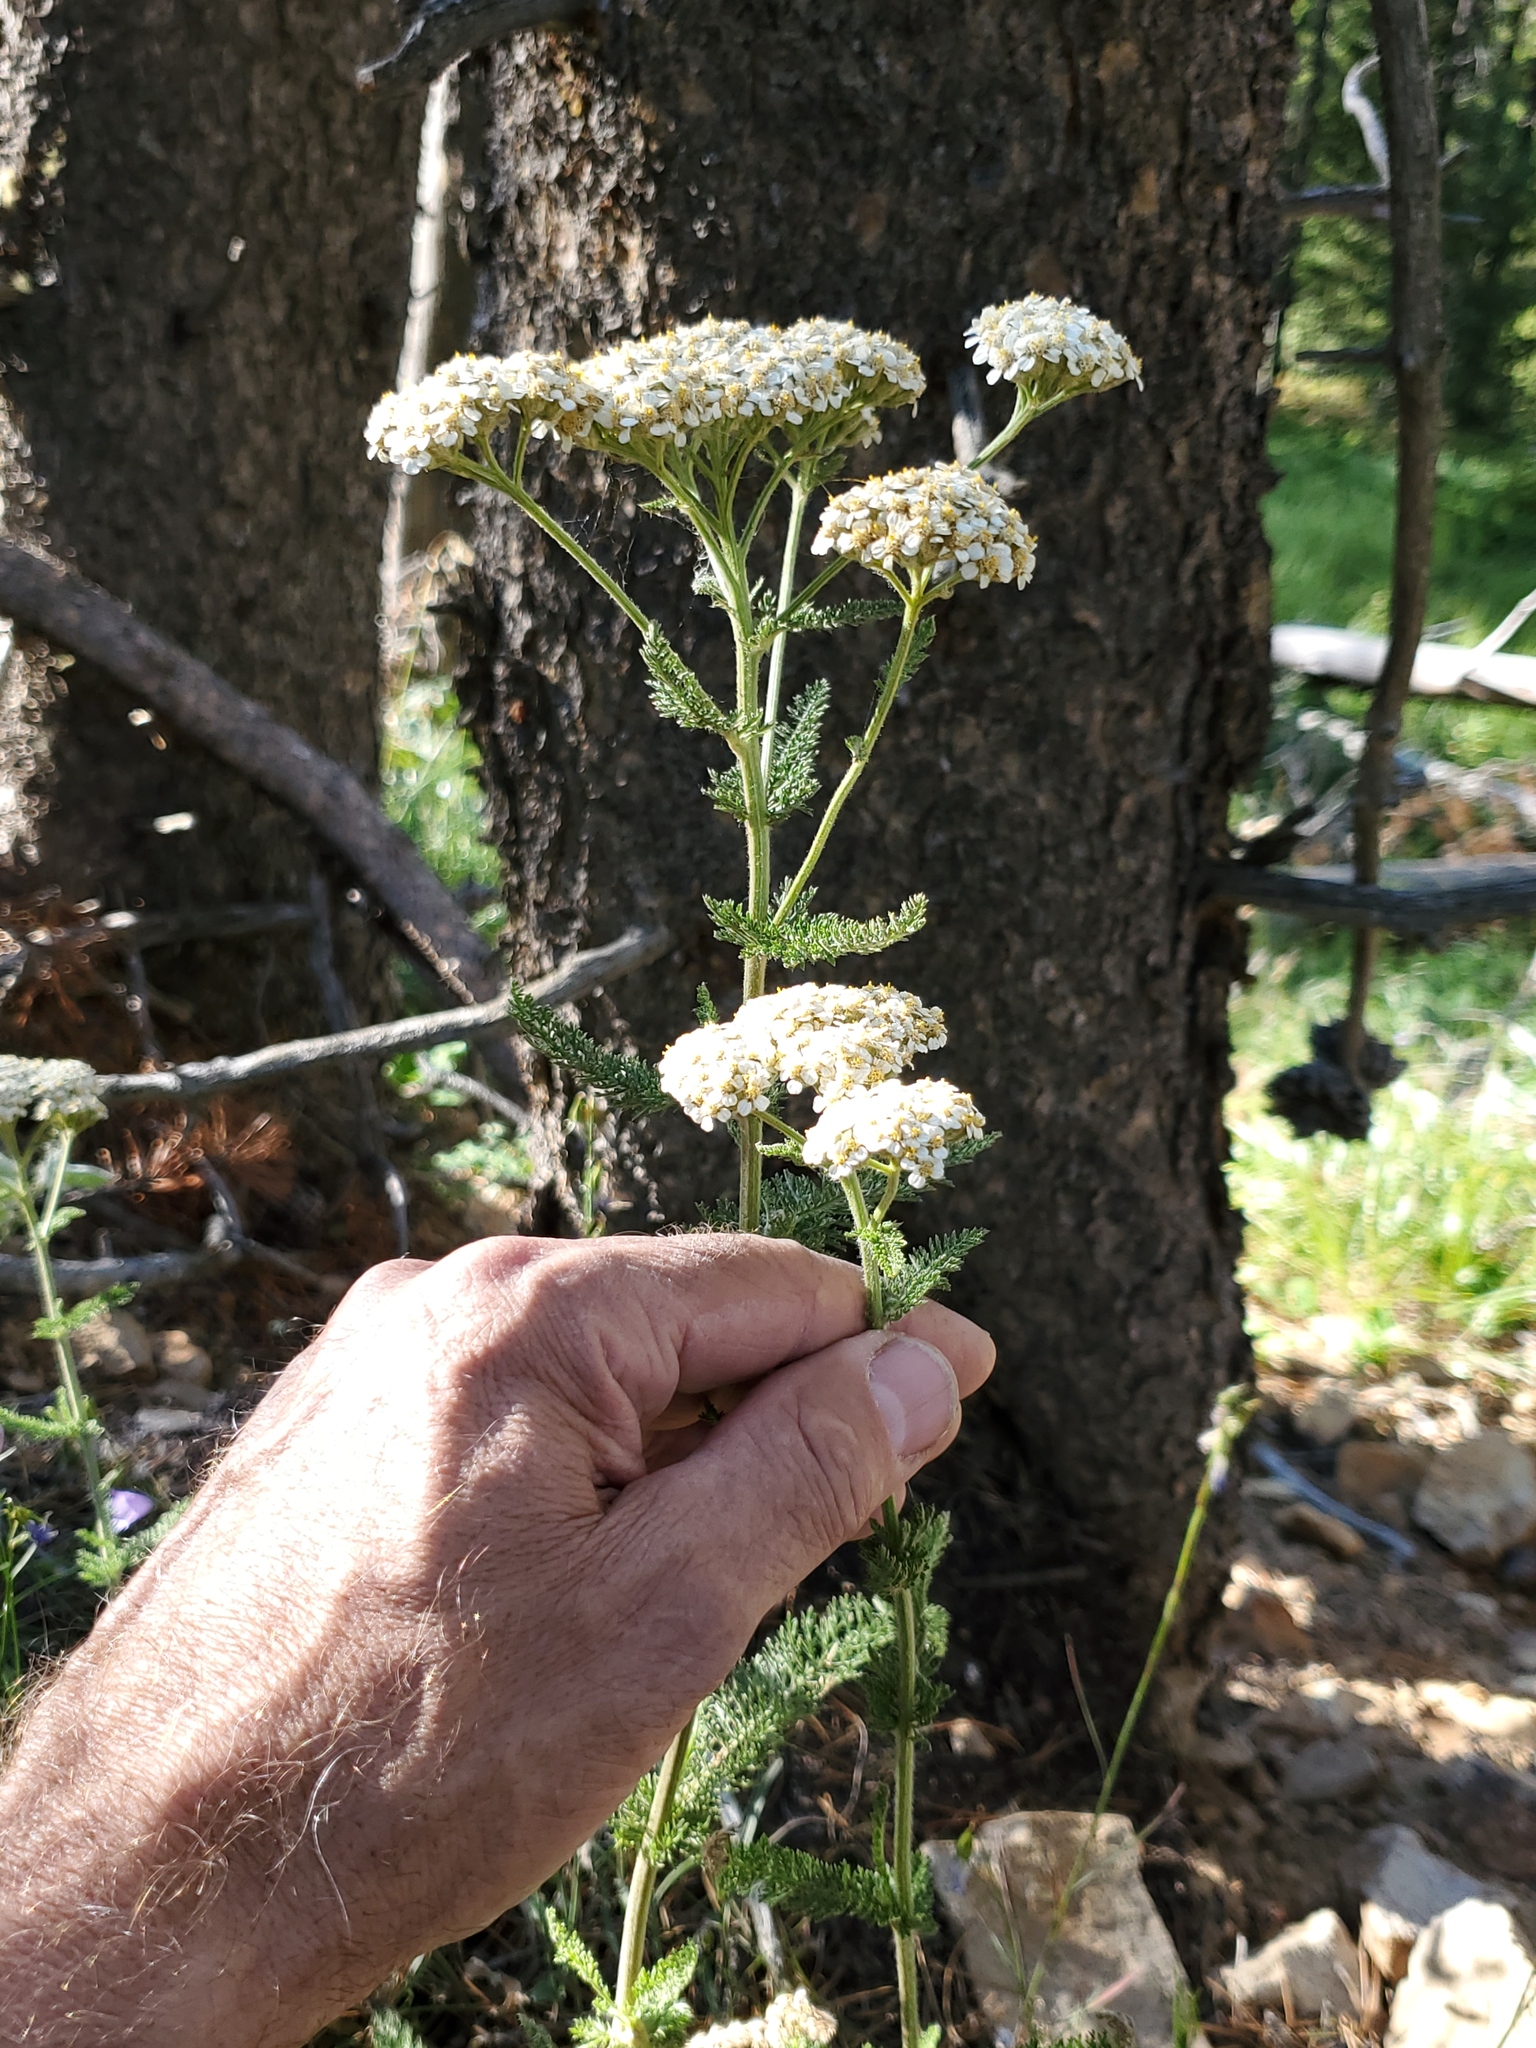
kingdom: Plantae
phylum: Tracheophyta
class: Magnoliopsida
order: Asterales
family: Asteraceae
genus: Achillea
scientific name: Achillea millefolium
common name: Yarrow
